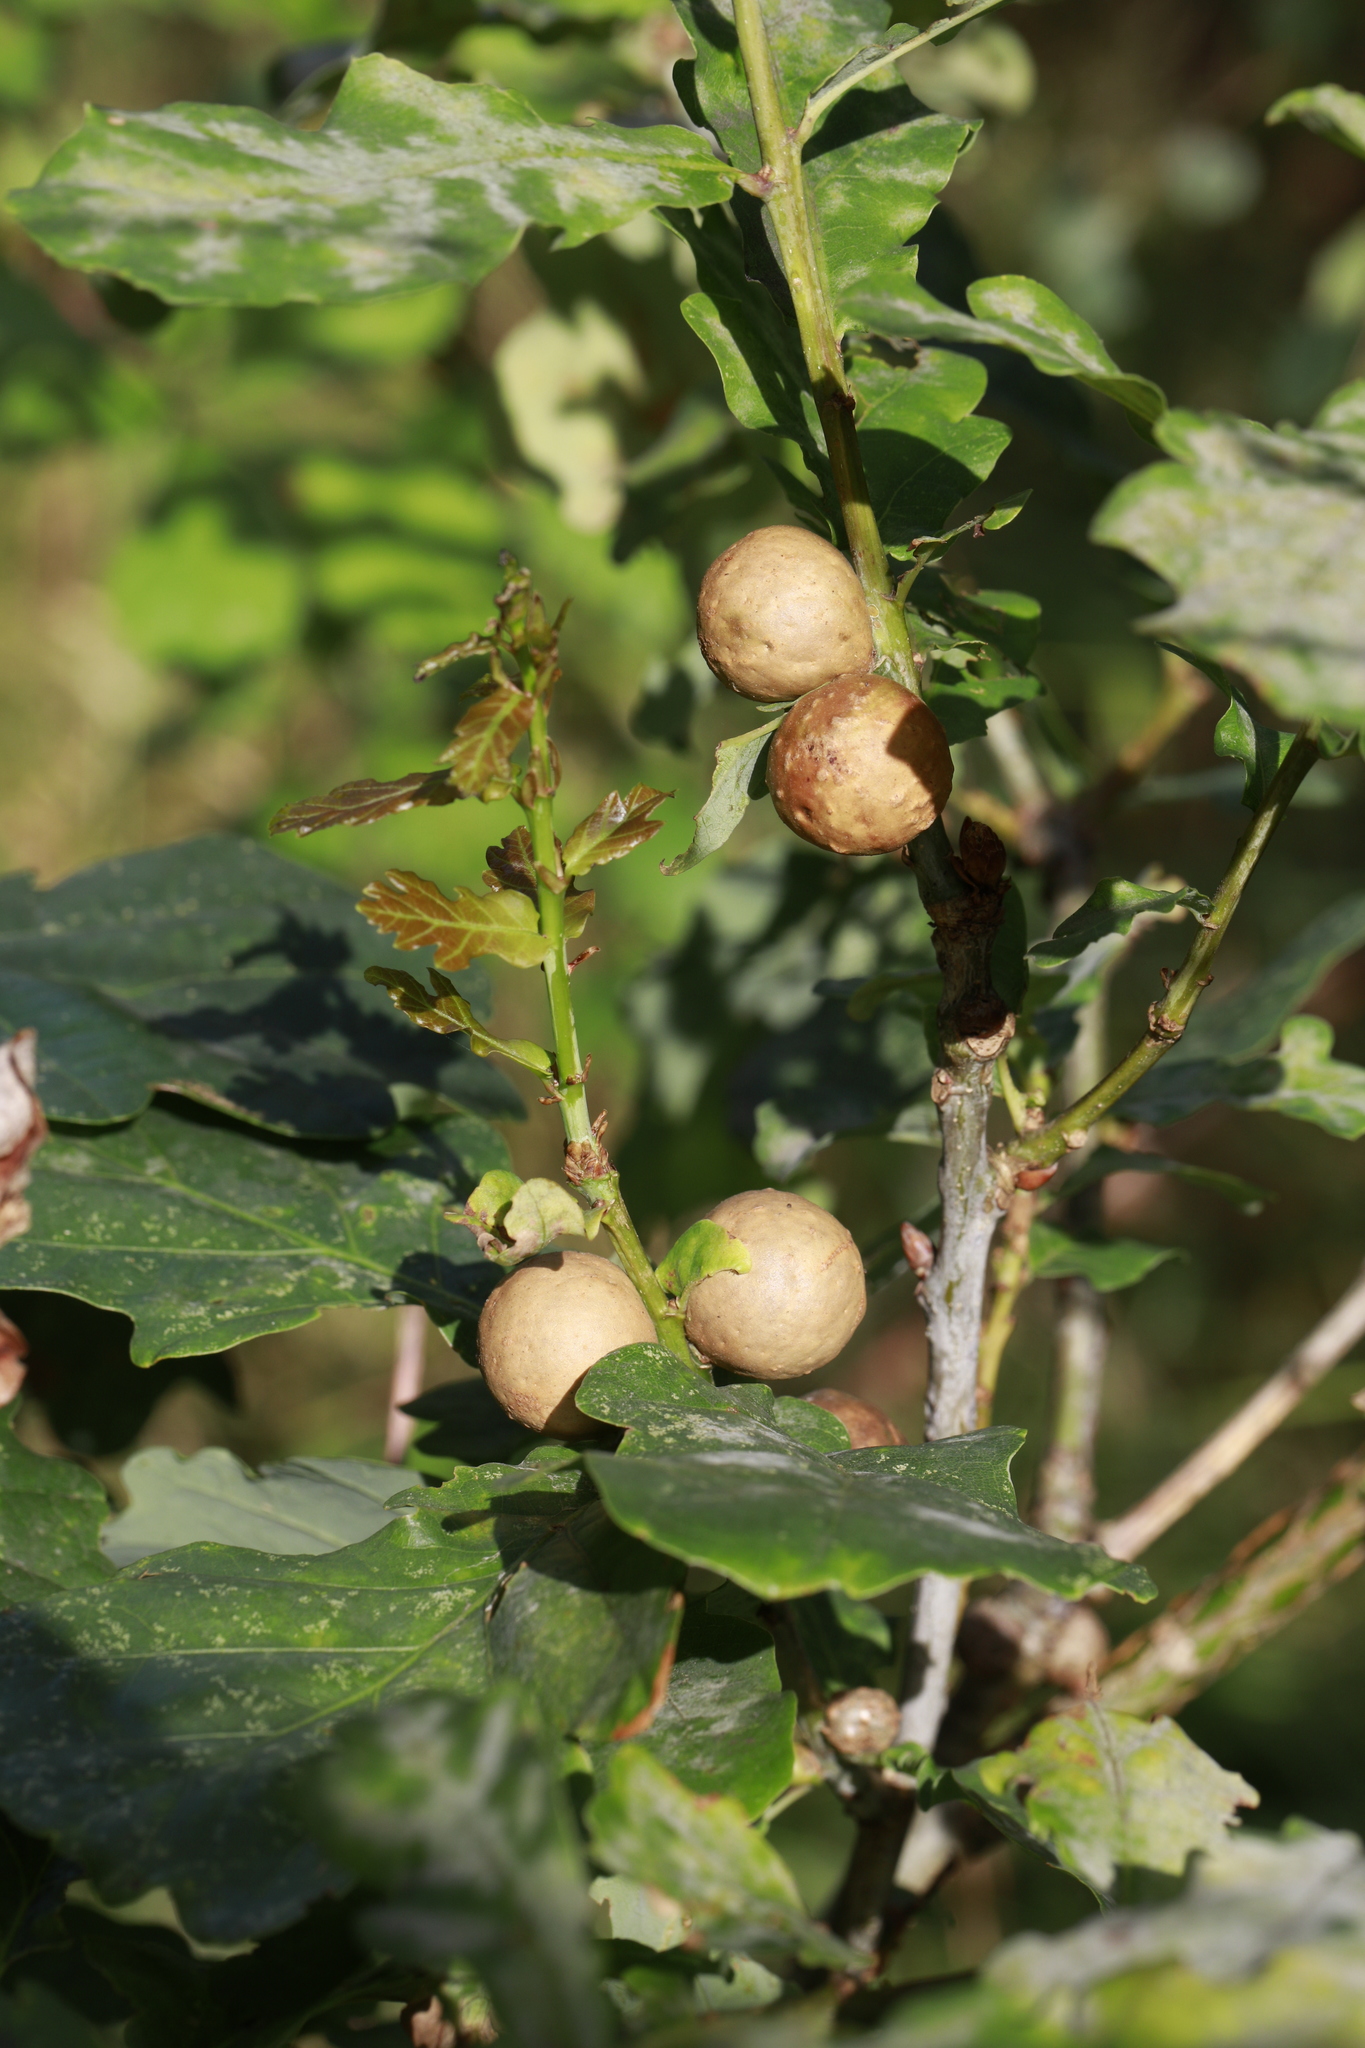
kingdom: Animalia
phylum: Arthropoda
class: Insecta
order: Hymenoptera
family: Cynipidae
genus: Andricus
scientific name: Andricus kollari
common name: Marble gall
